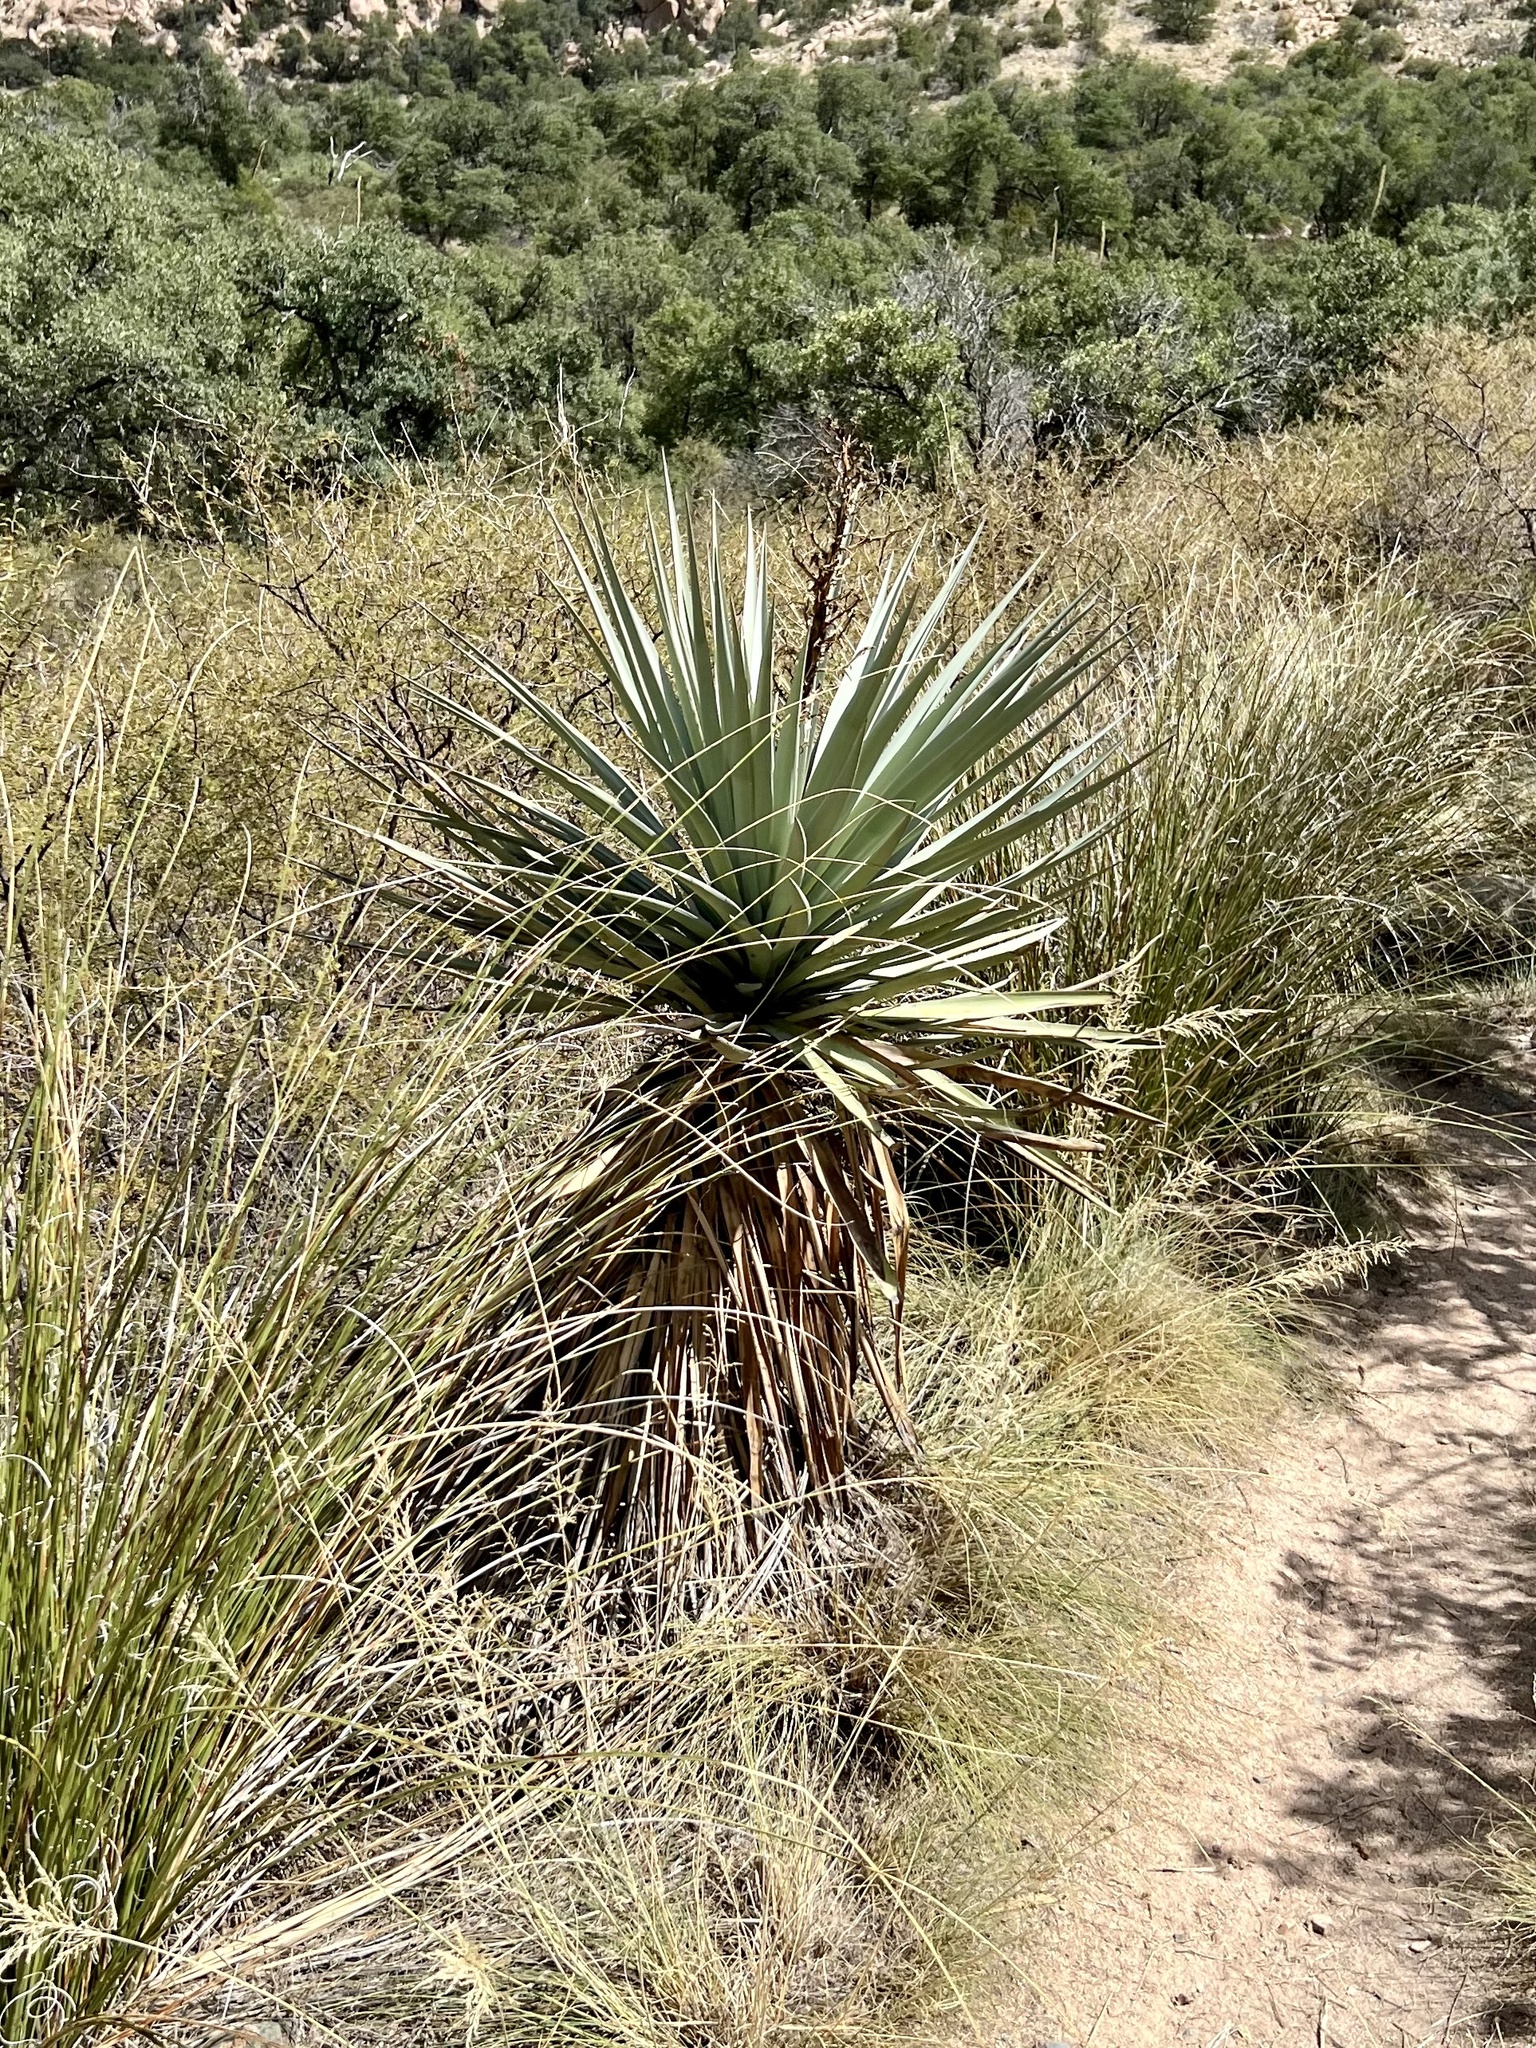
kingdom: Plantae
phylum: Tracheophyta
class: Liliopsida
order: Asparagales
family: Asparagaceae
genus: Yucca
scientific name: Yucca schottii
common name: Hoary yucca
